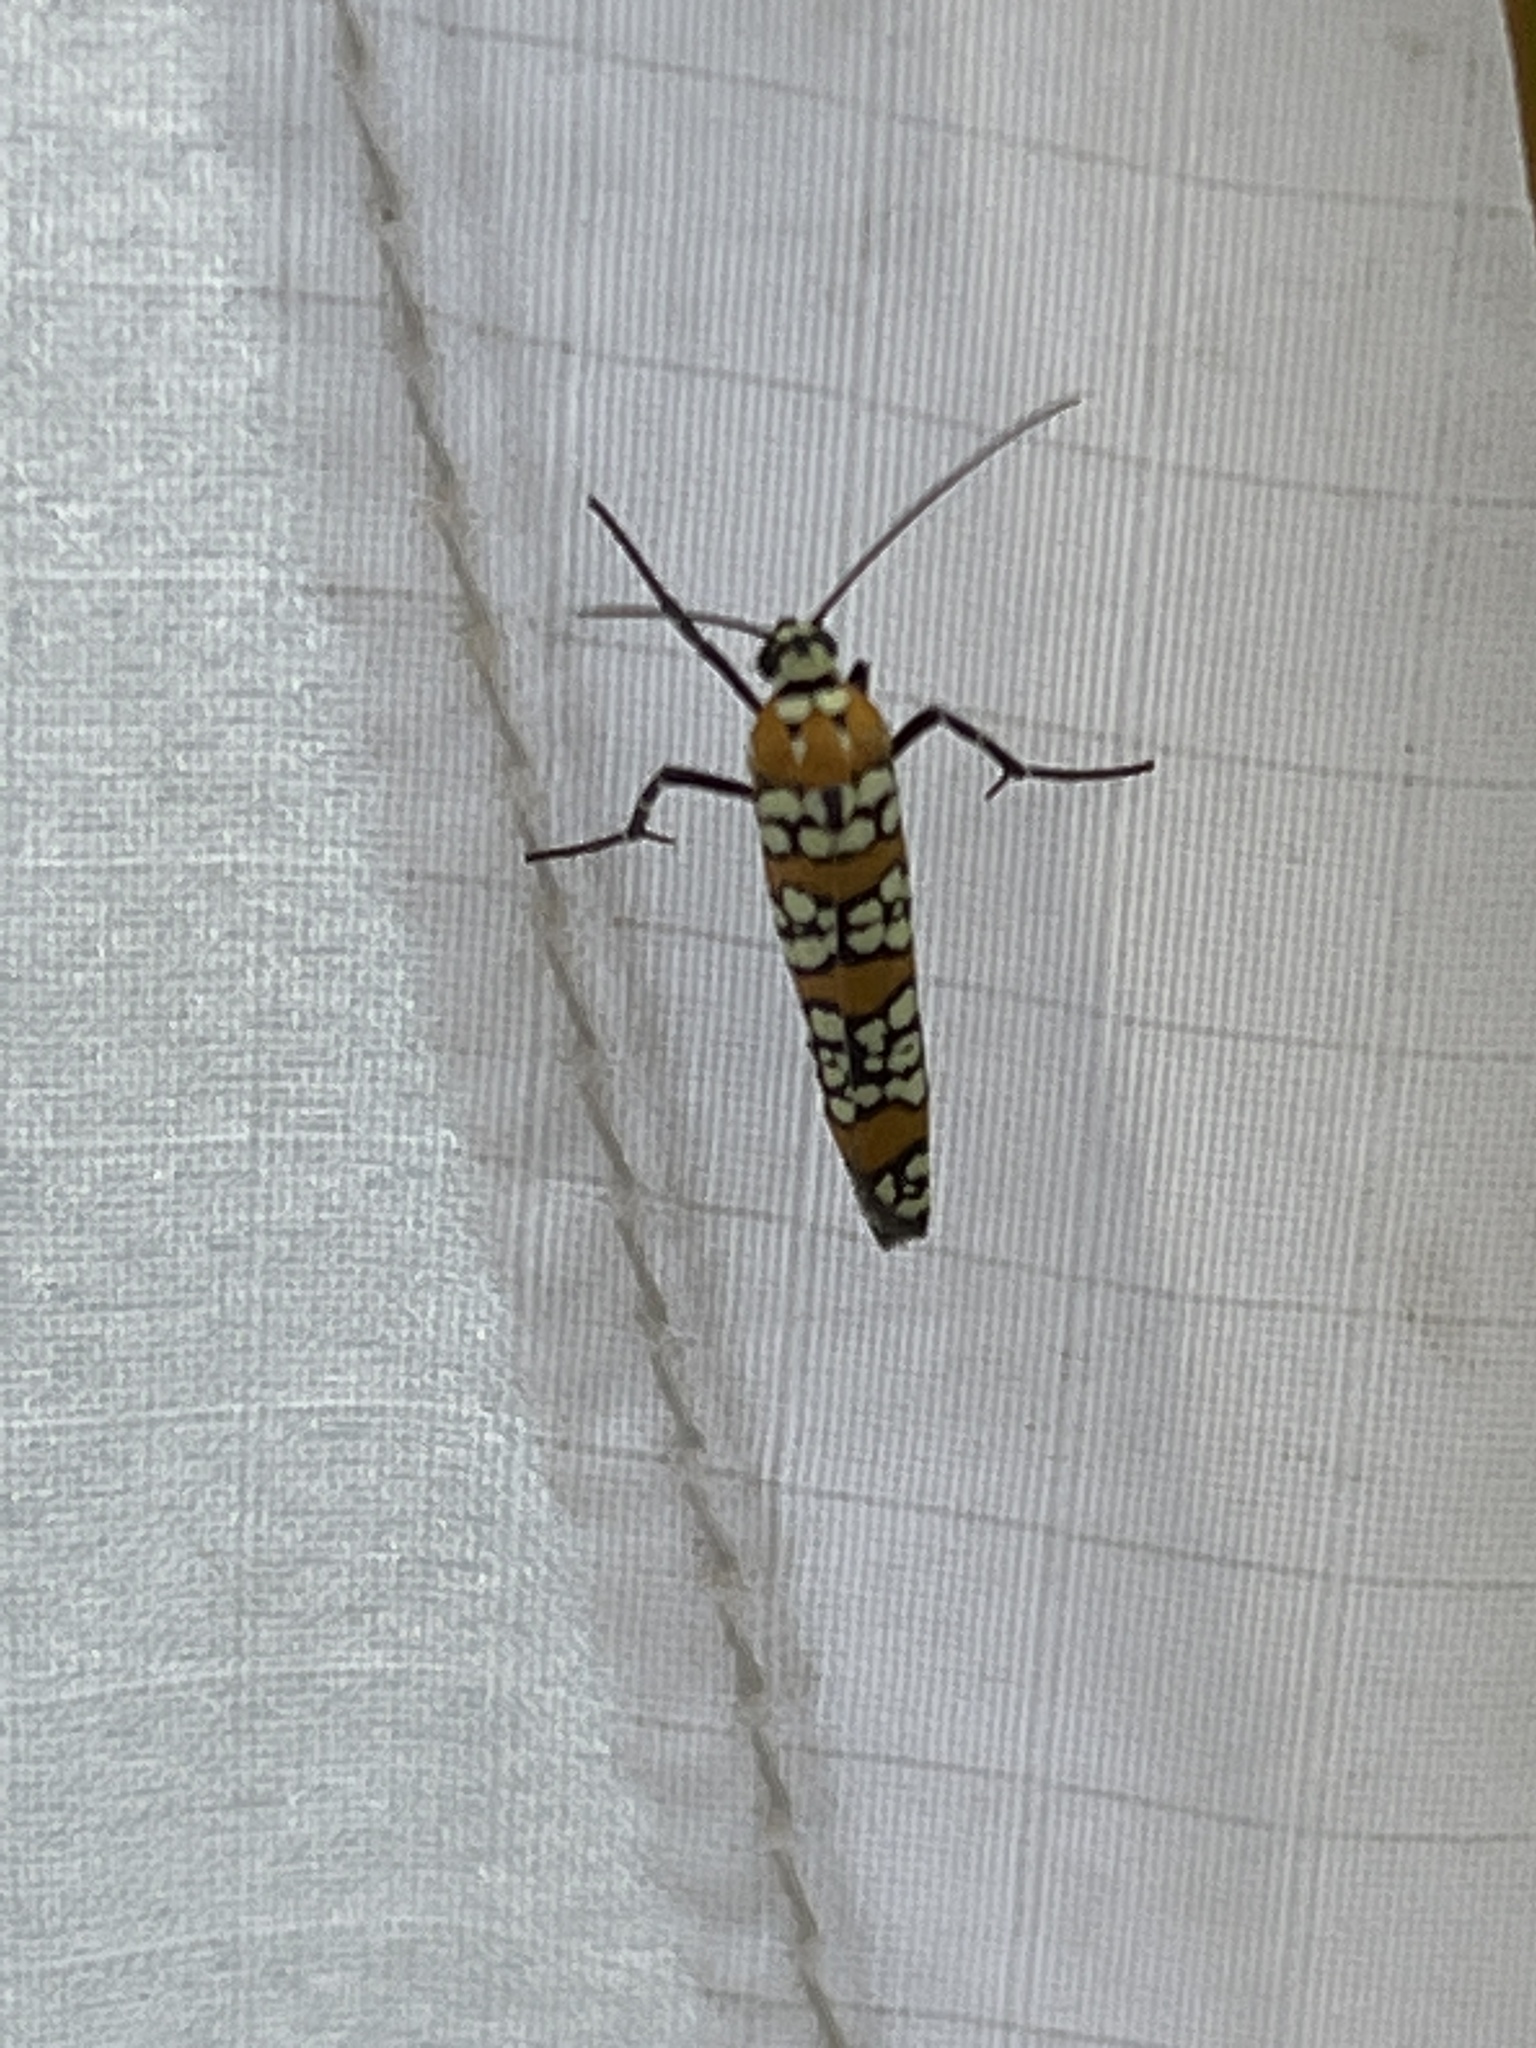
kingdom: Animalia
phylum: Arthropoda
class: Insecta
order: Lepidoptera
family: Attevidae
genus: Atteva
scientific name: Atteva punctella
